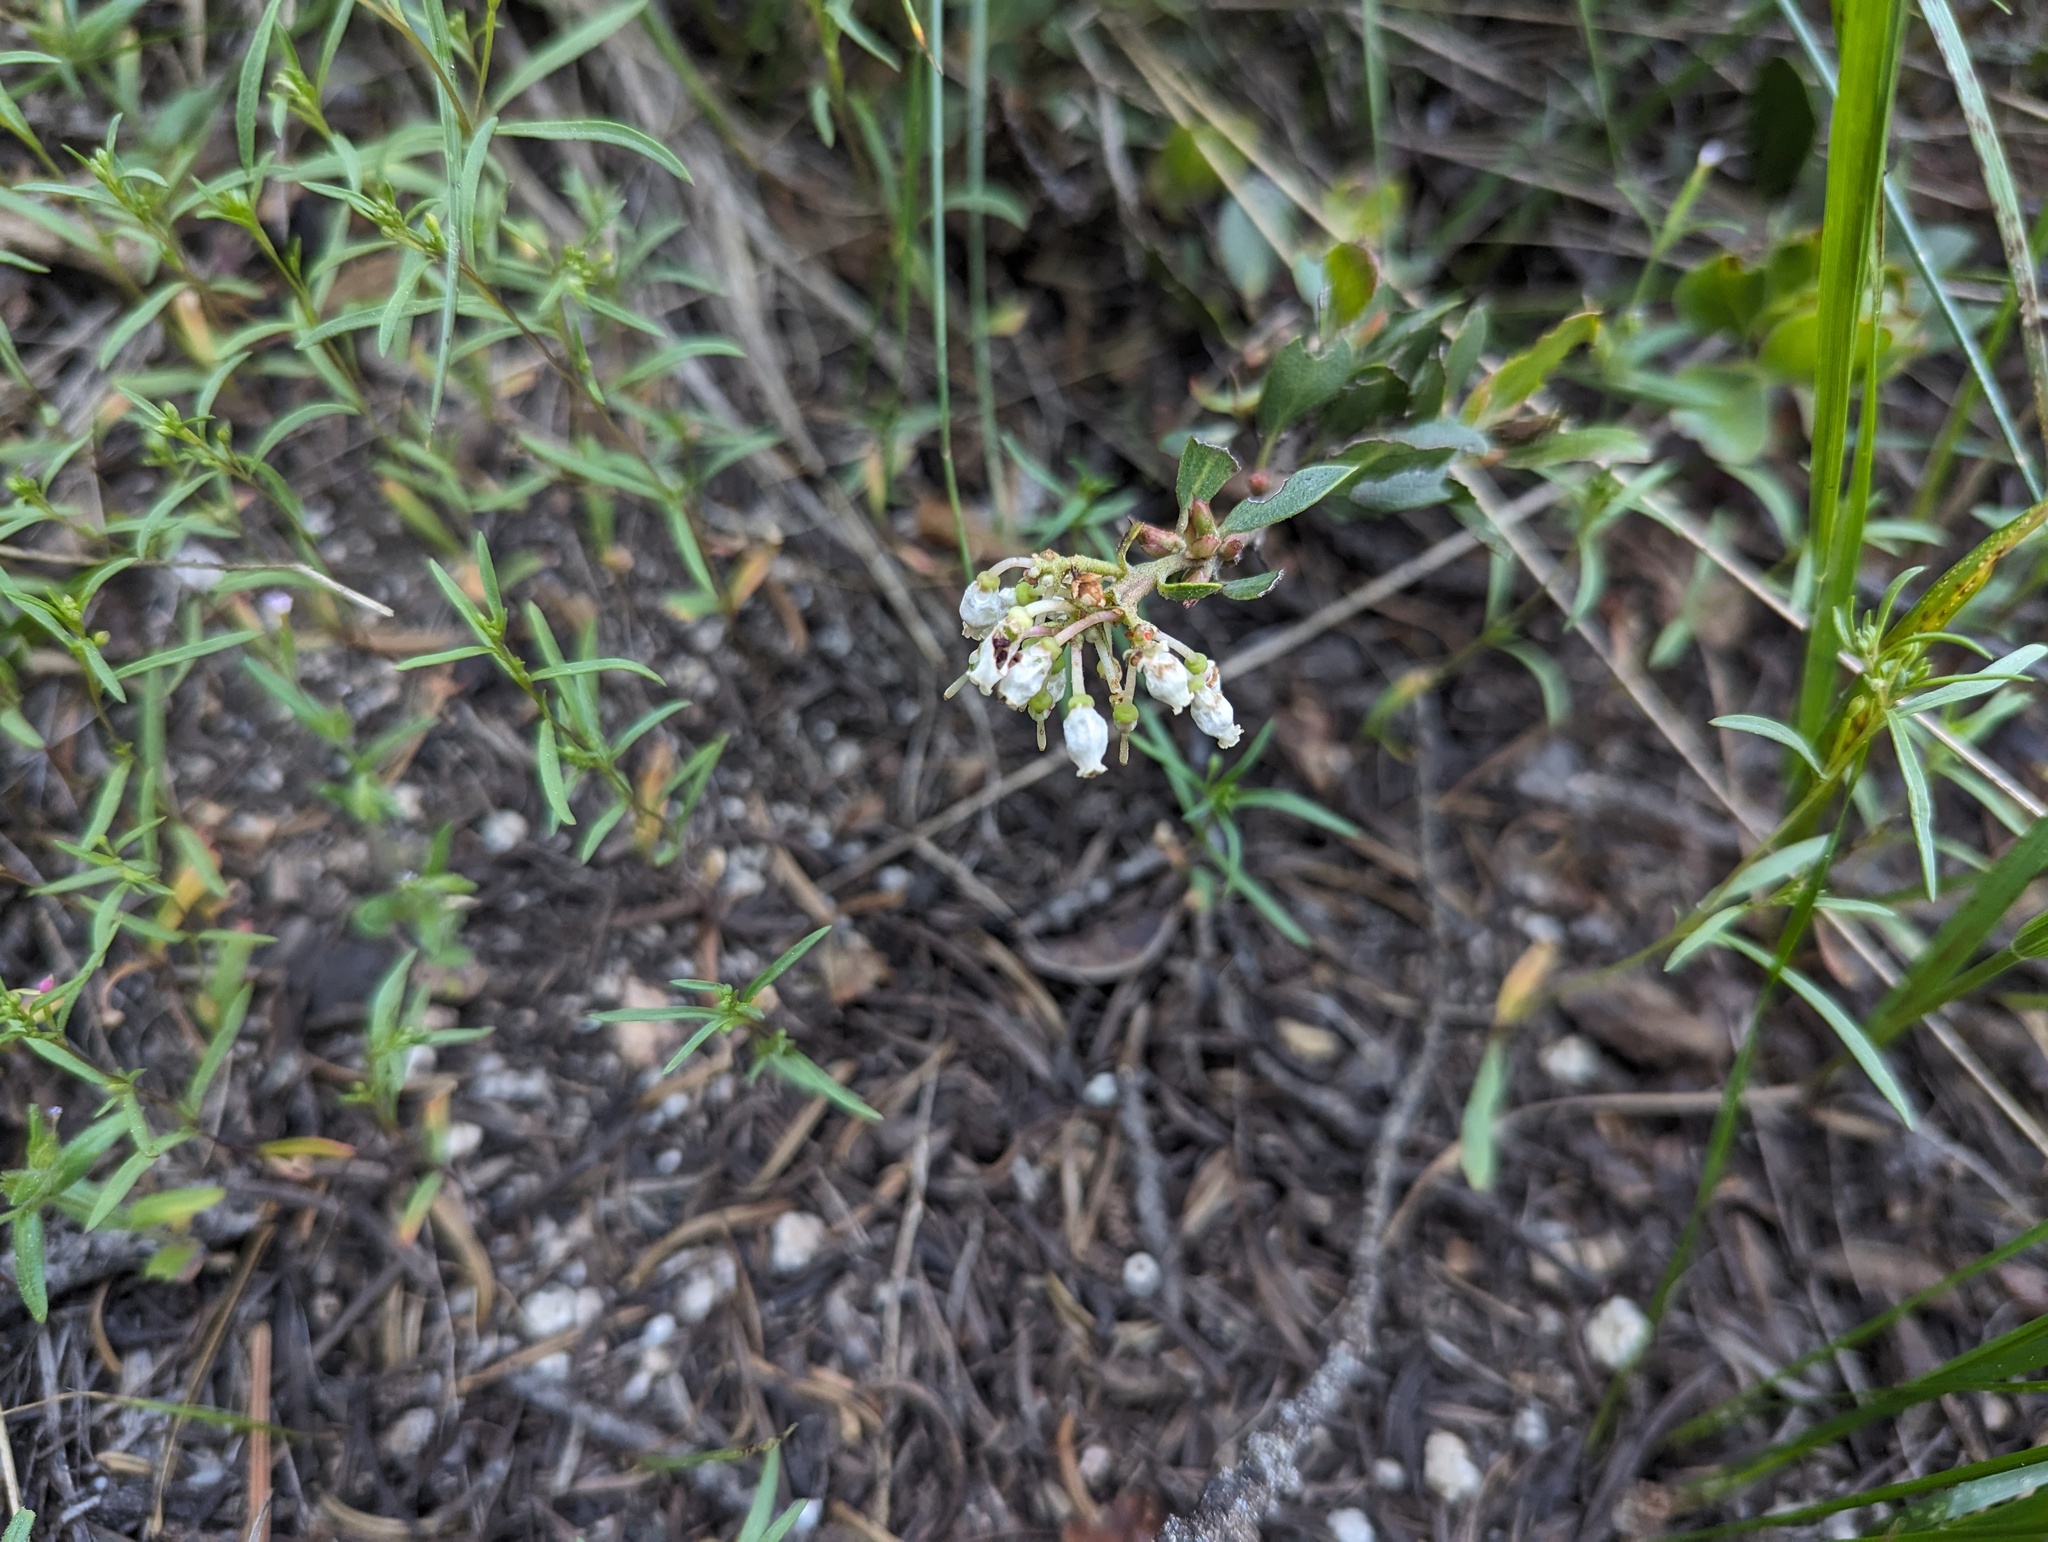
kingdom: Plantae
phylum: Tracheophyta
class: Magnoliopsida
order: Ericales
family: Ericaceae
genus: Arctostaphylos
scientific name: Arctostaphylos nevadensis
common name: Pinemat manzanita
